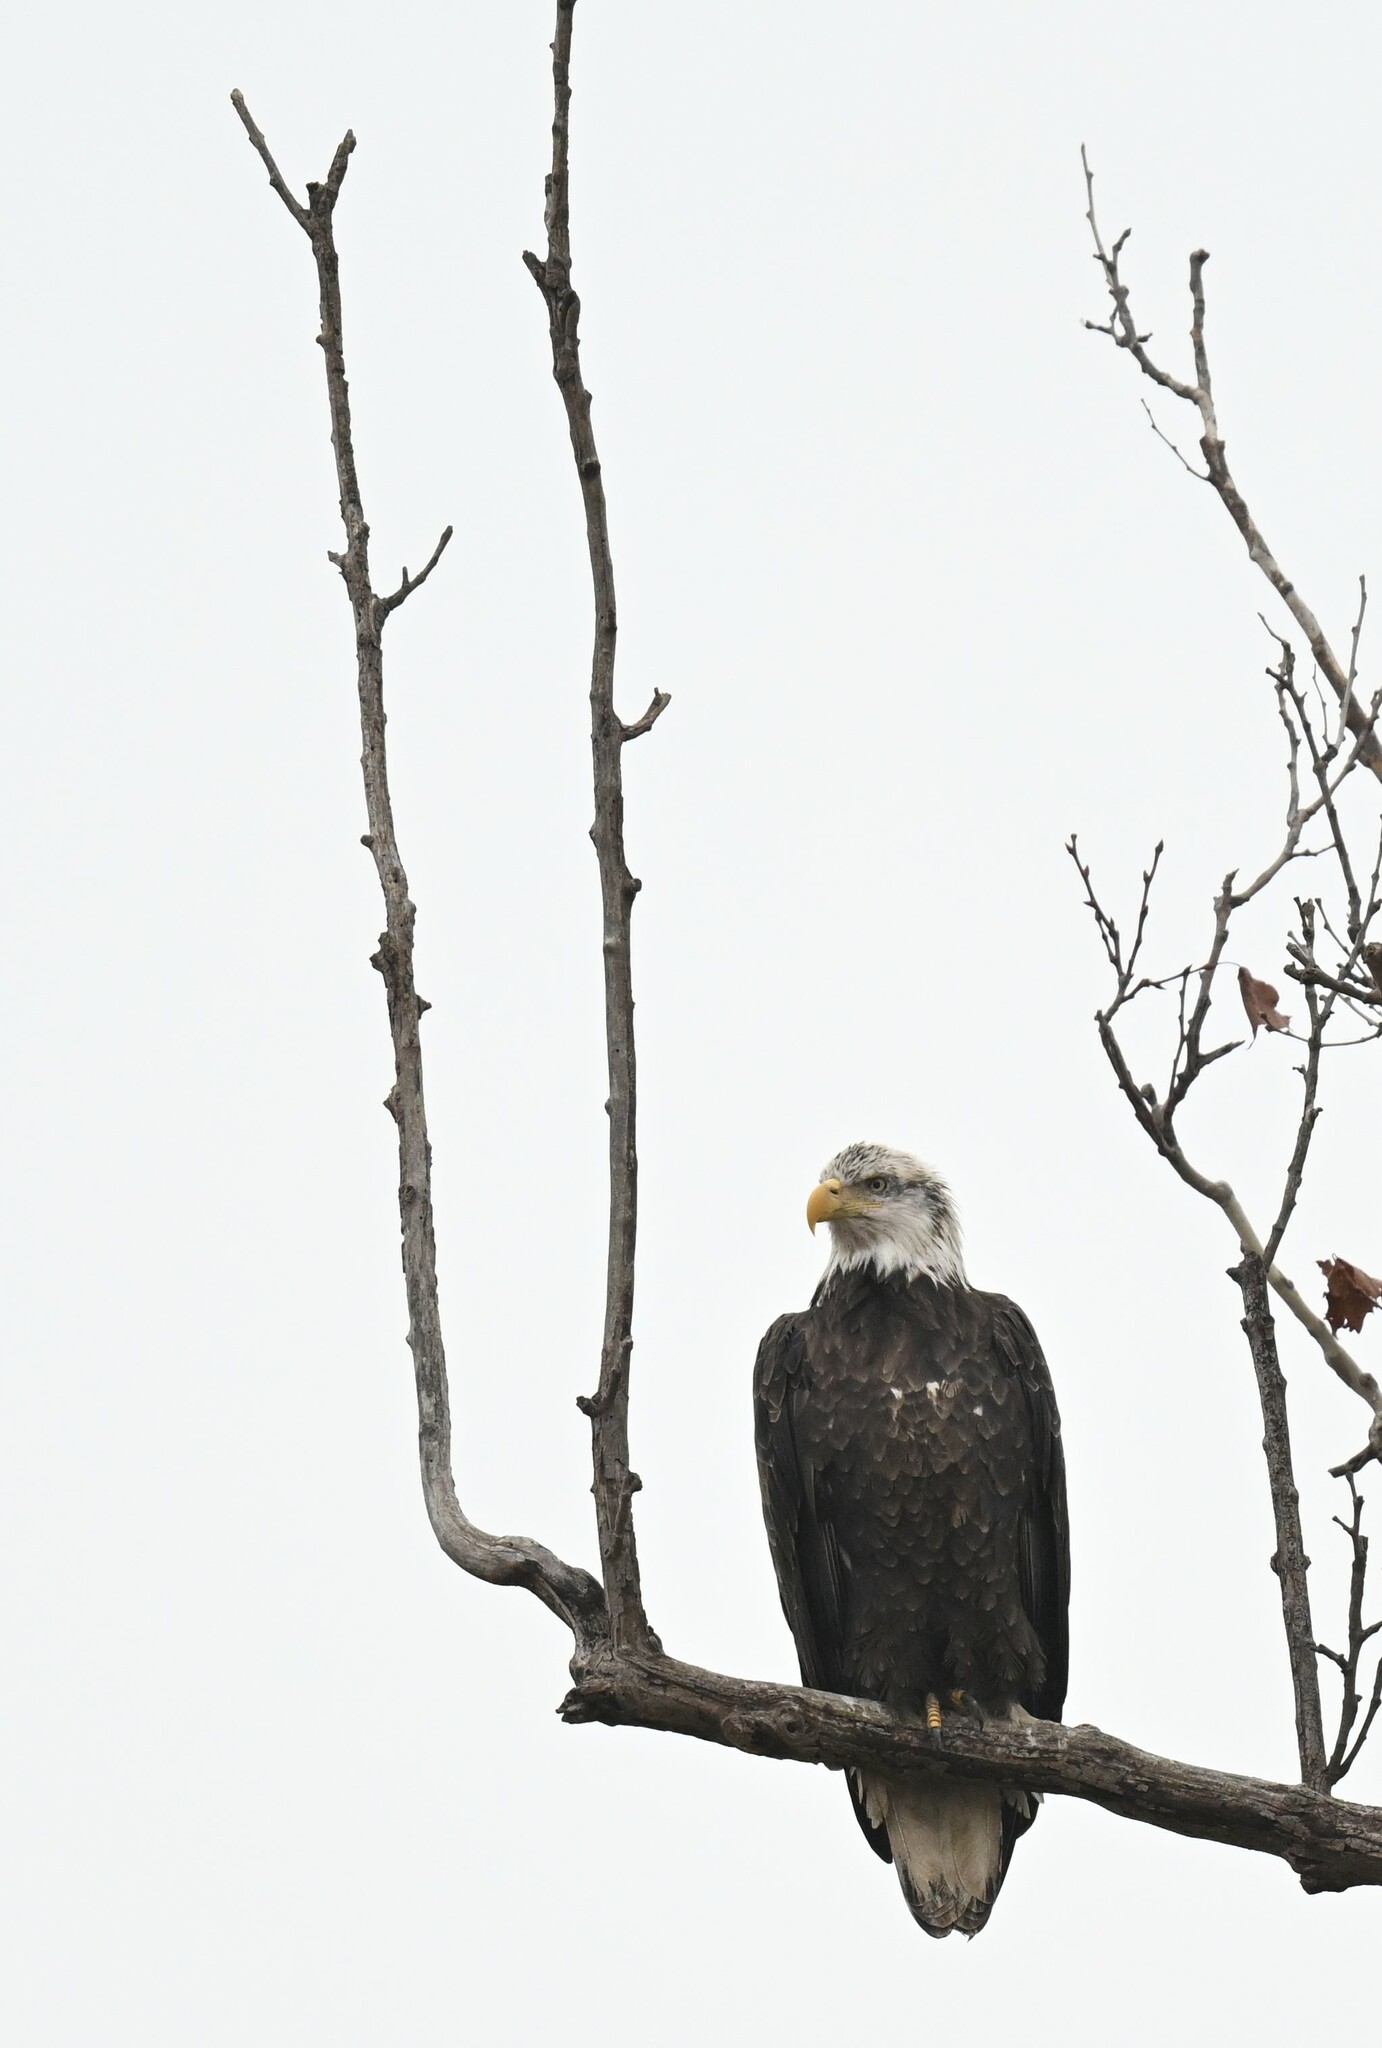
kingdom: Animalia
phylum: Chordata
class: Aves
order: Accipitriformes
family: Accipitridae
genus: Haliaeetus
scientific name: Haliaeetus leucocephalus
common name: Bald eagle
